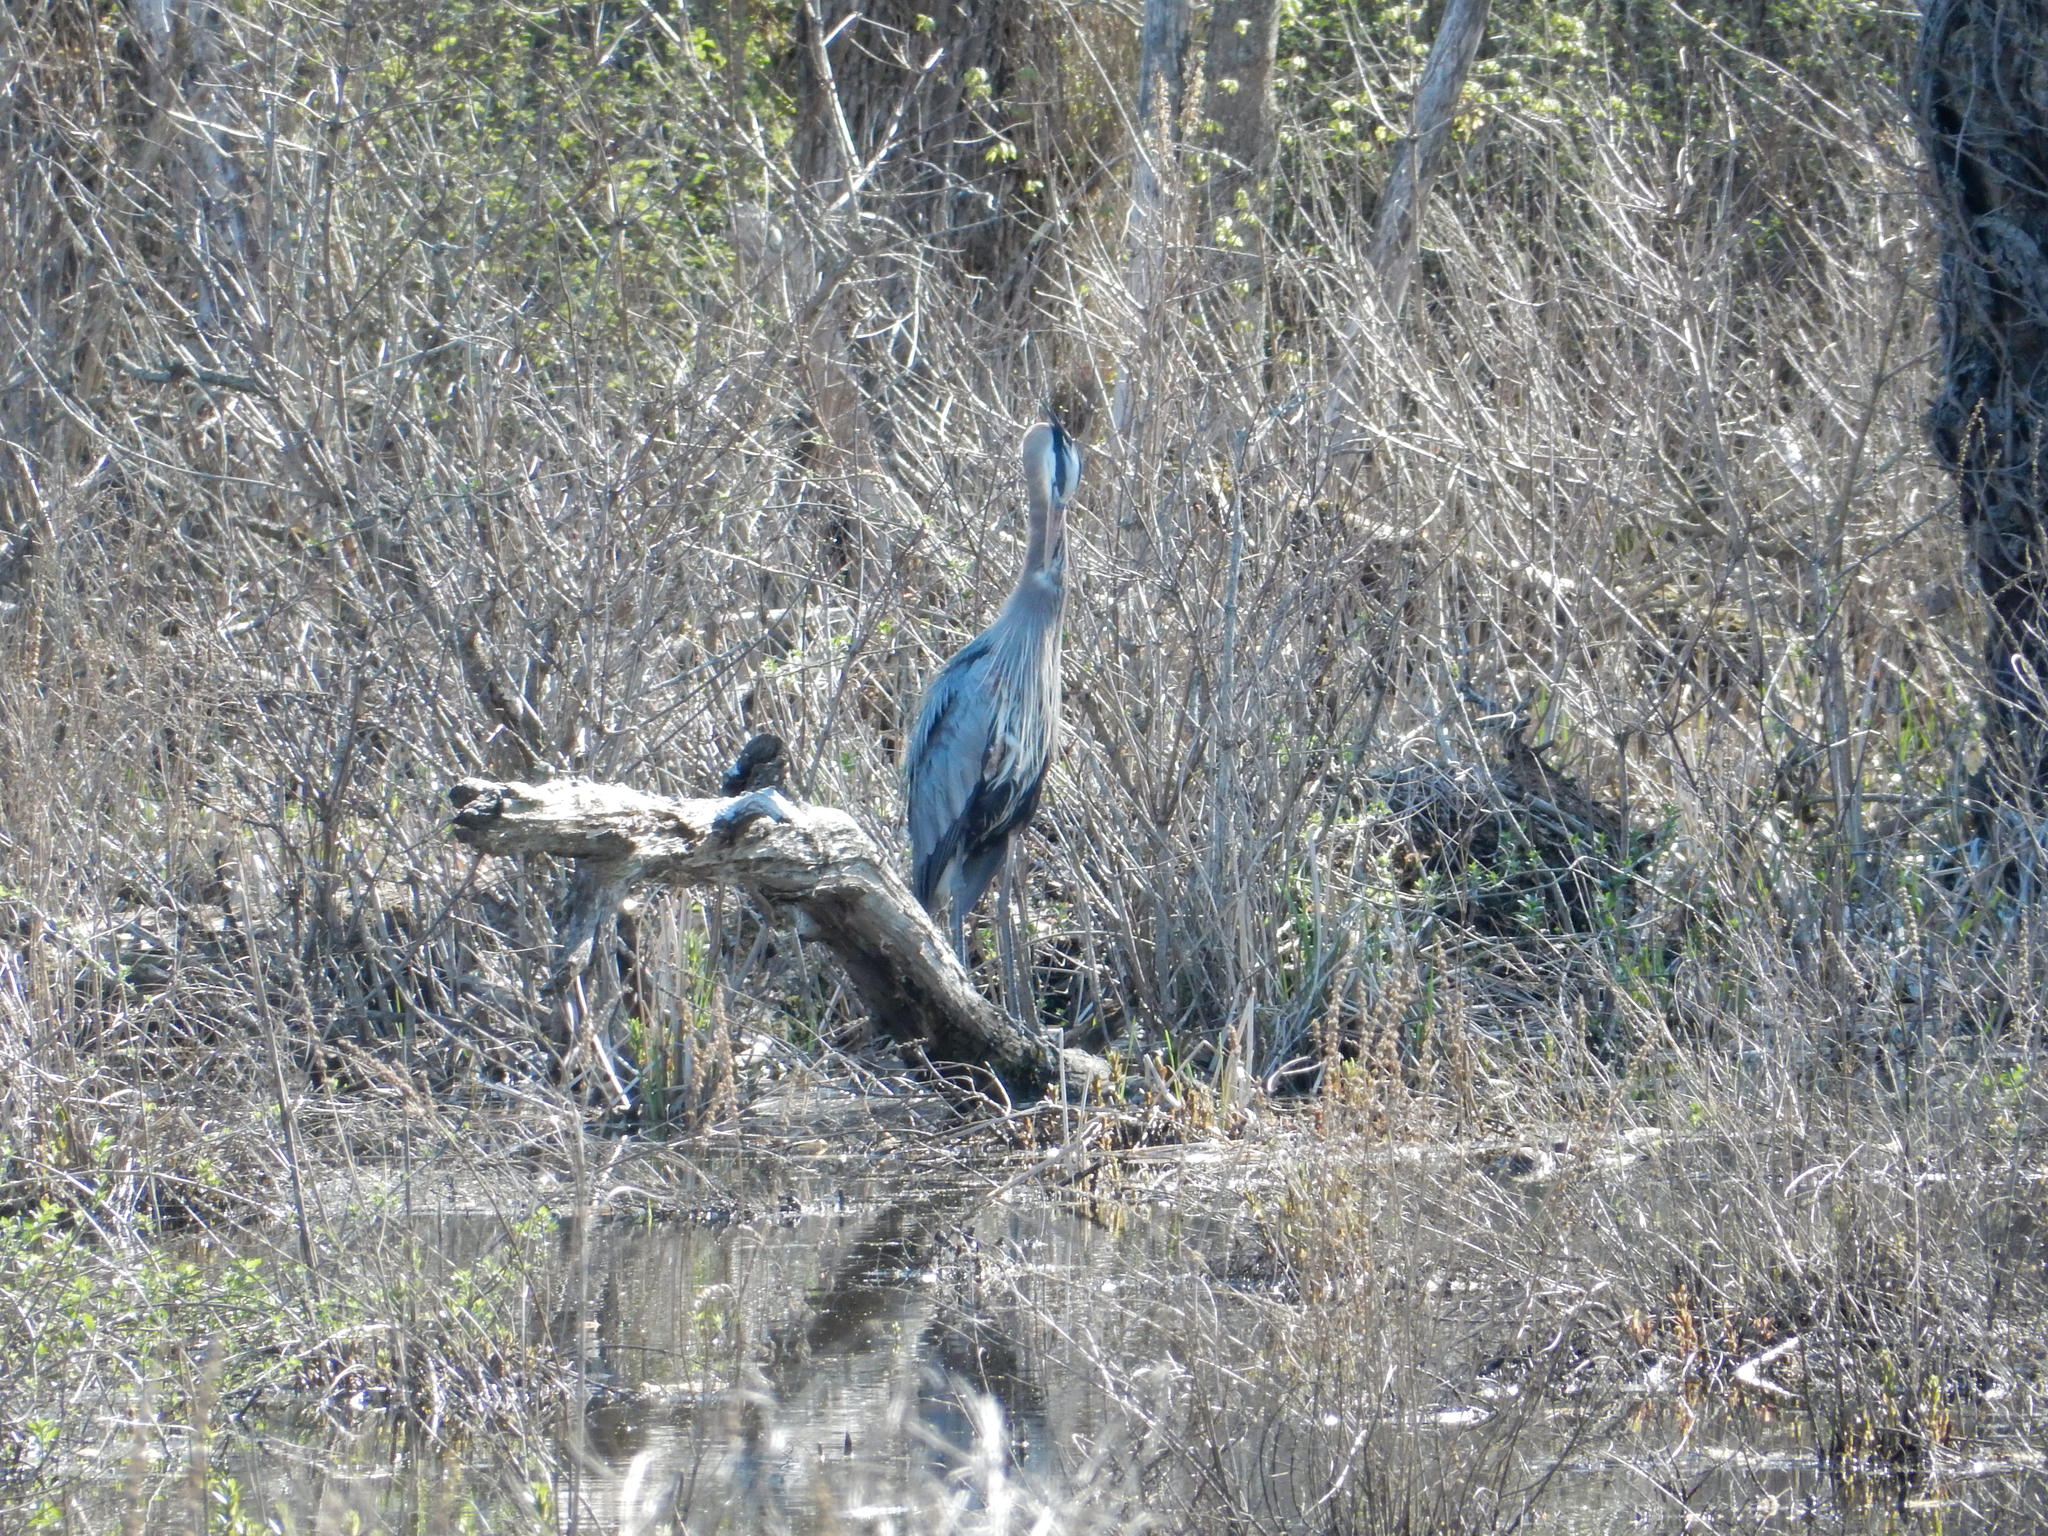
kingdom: Animalia
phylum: Chordata
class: Aves
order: Pelecaniformes
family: Ardeidae
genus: Ardea
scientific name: Ardea herodias
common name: Great blue heron
